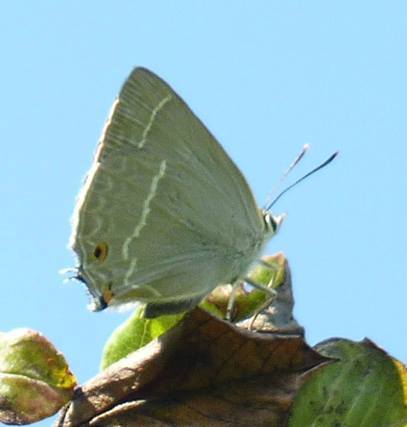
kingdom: Animalia
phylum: Arthropoda
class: Insecta
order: Lepidoptera
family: Lycaenidae
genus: Quercusia
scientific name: Quercusia quercus
